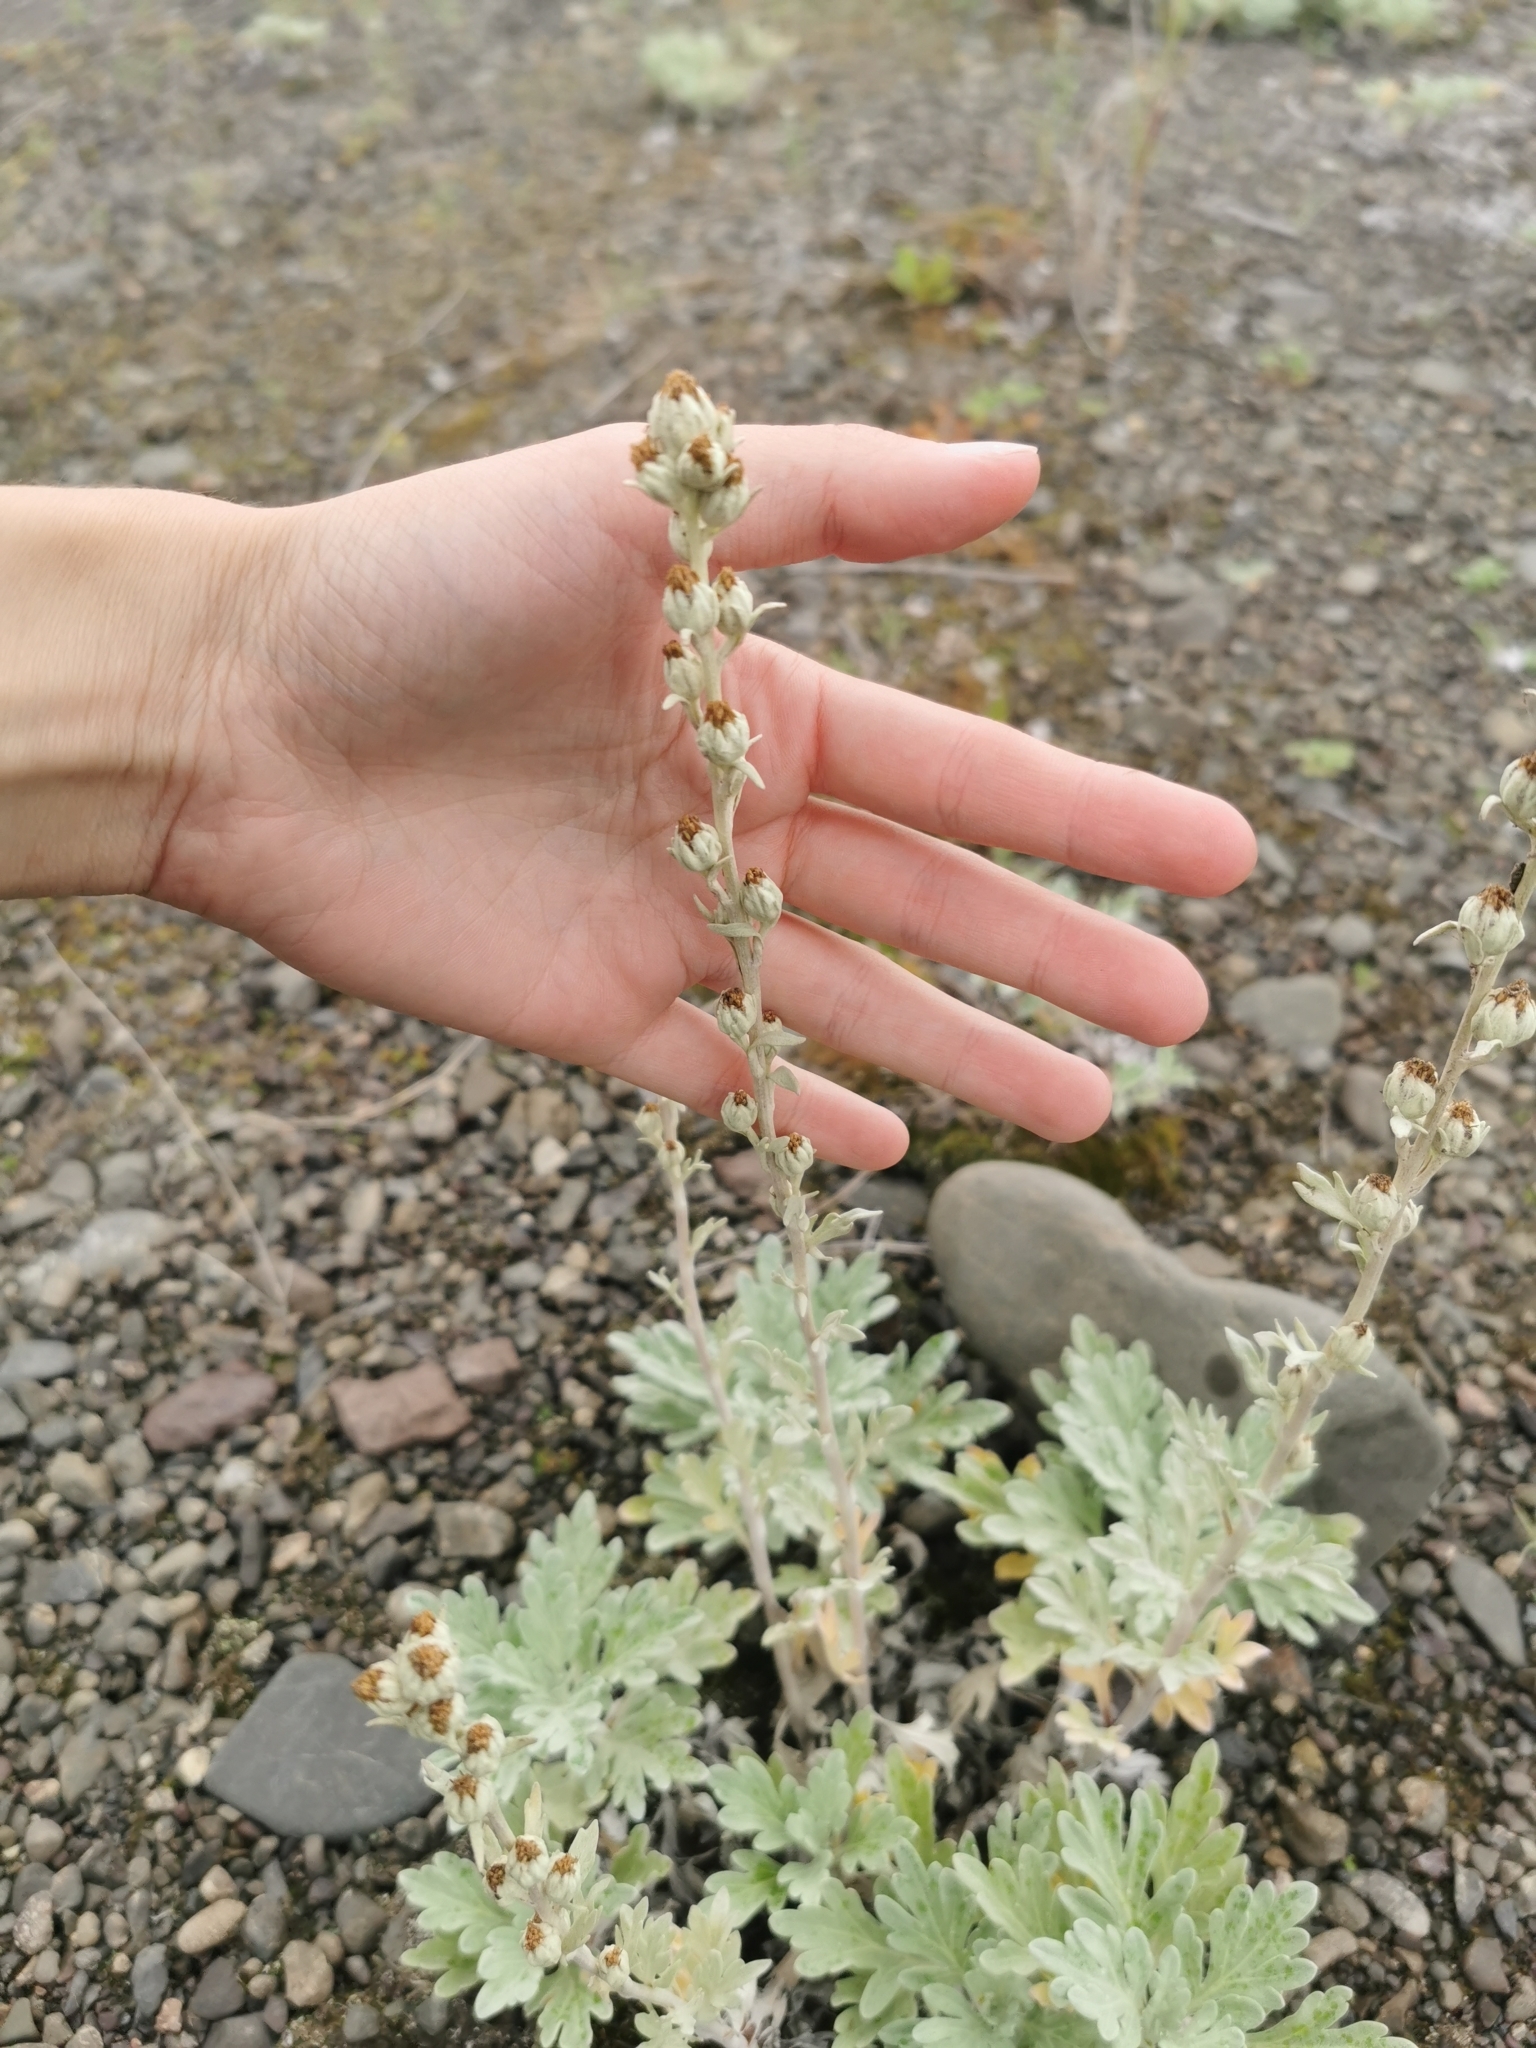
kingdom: Plantae
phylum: Tracheophyta
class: Magnoliopsida
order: Asterales
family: Asteraceae
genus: Artemisia
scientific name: Artemisia stelleriana
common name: Beach wormwood
